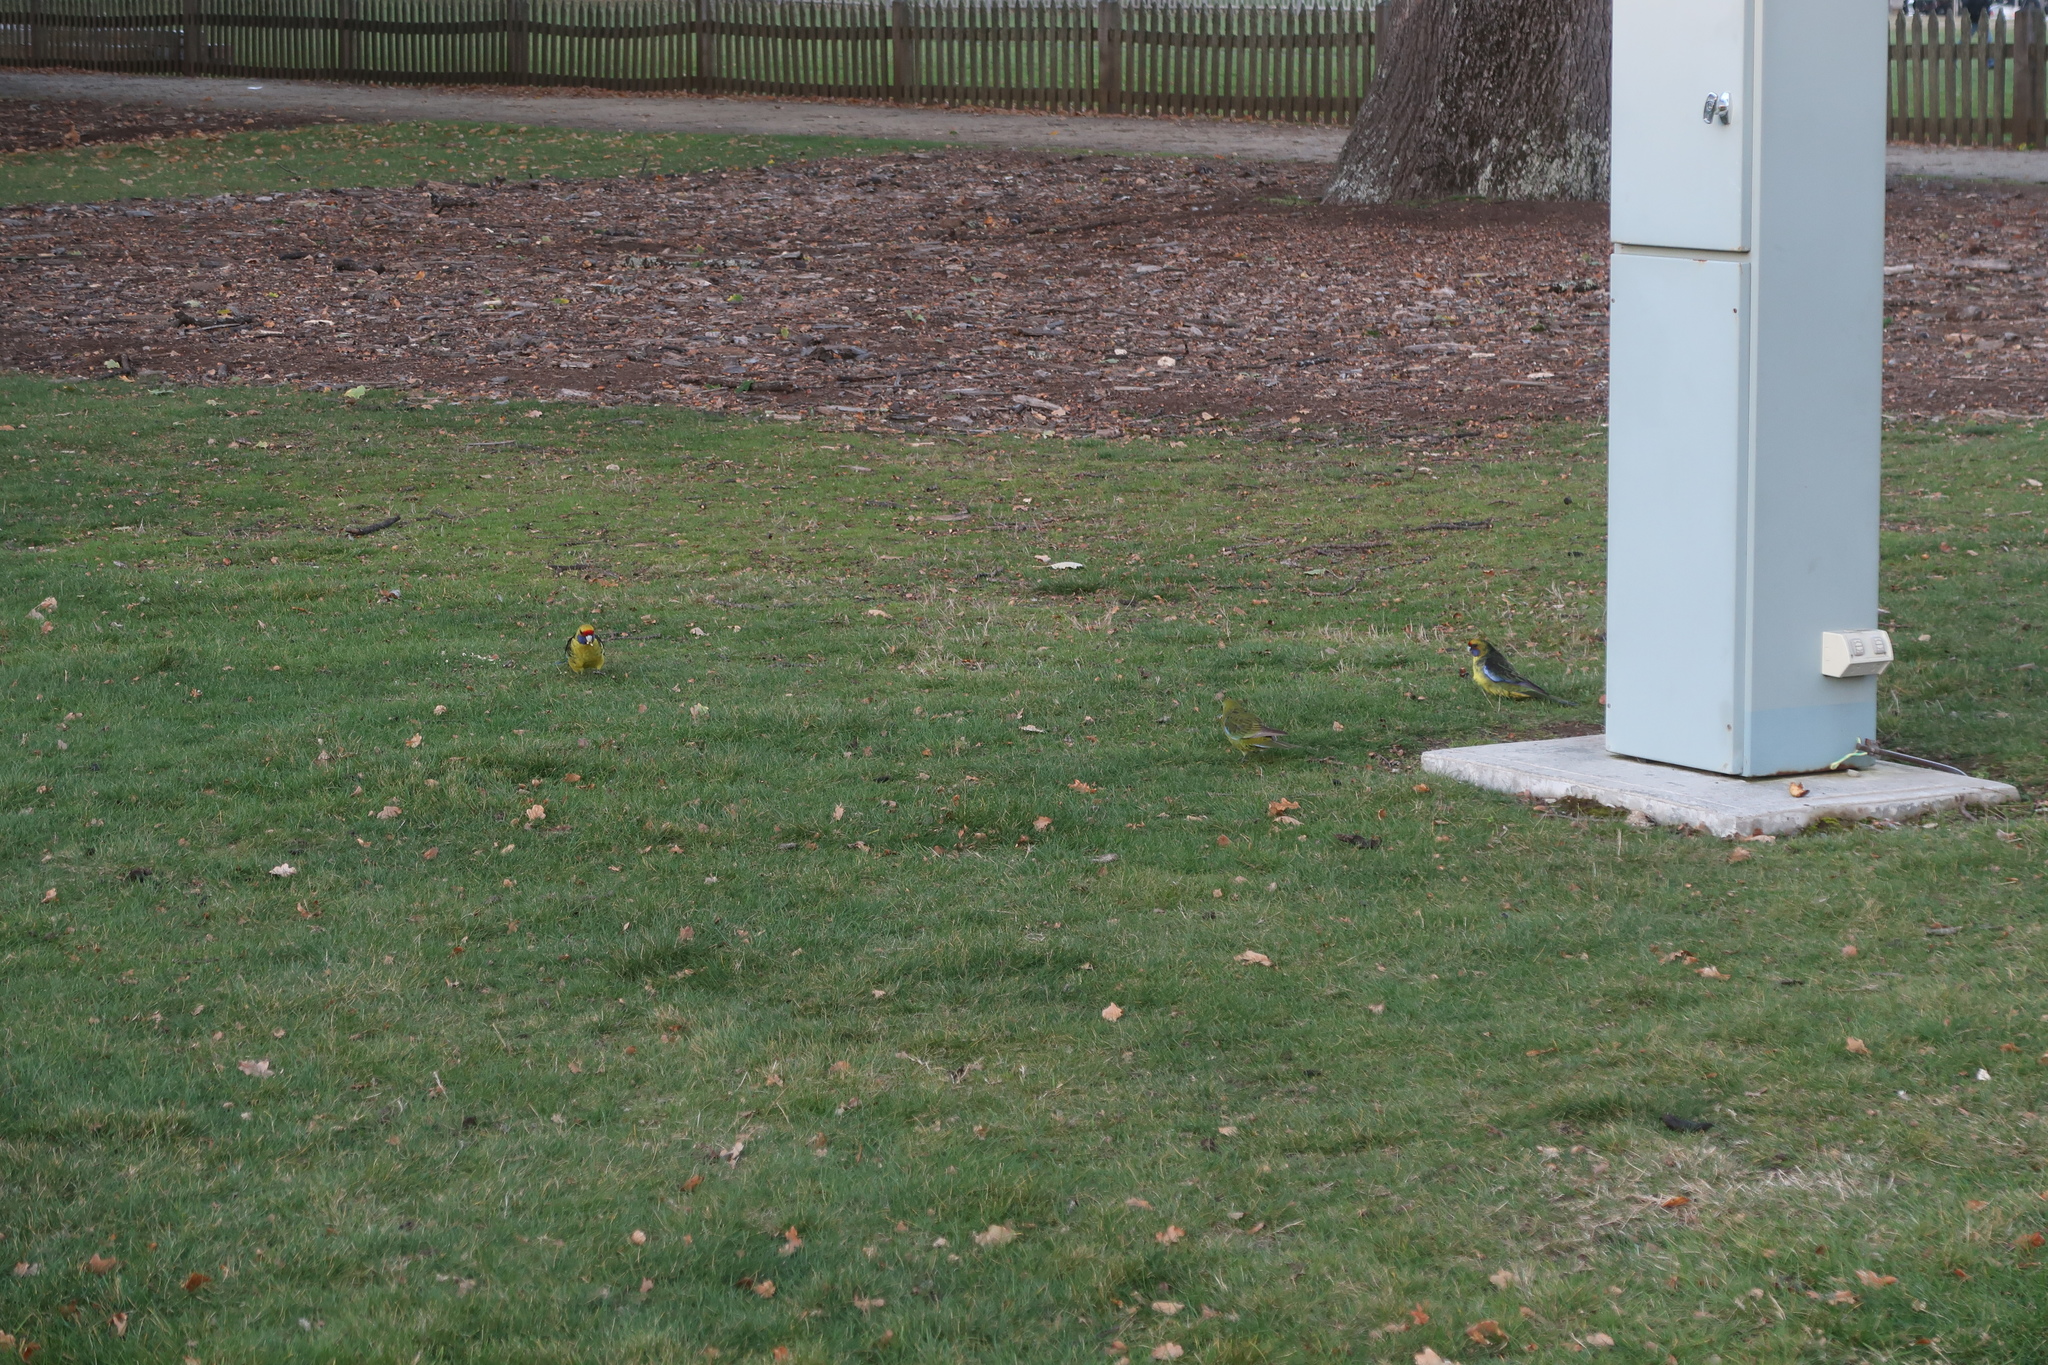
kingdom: Animalia
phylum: Chordata
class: Aves
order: Psittaciformes
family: Psittacidae
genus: Platycercus
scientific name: Platycercus caledonicus
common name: Green rosella
